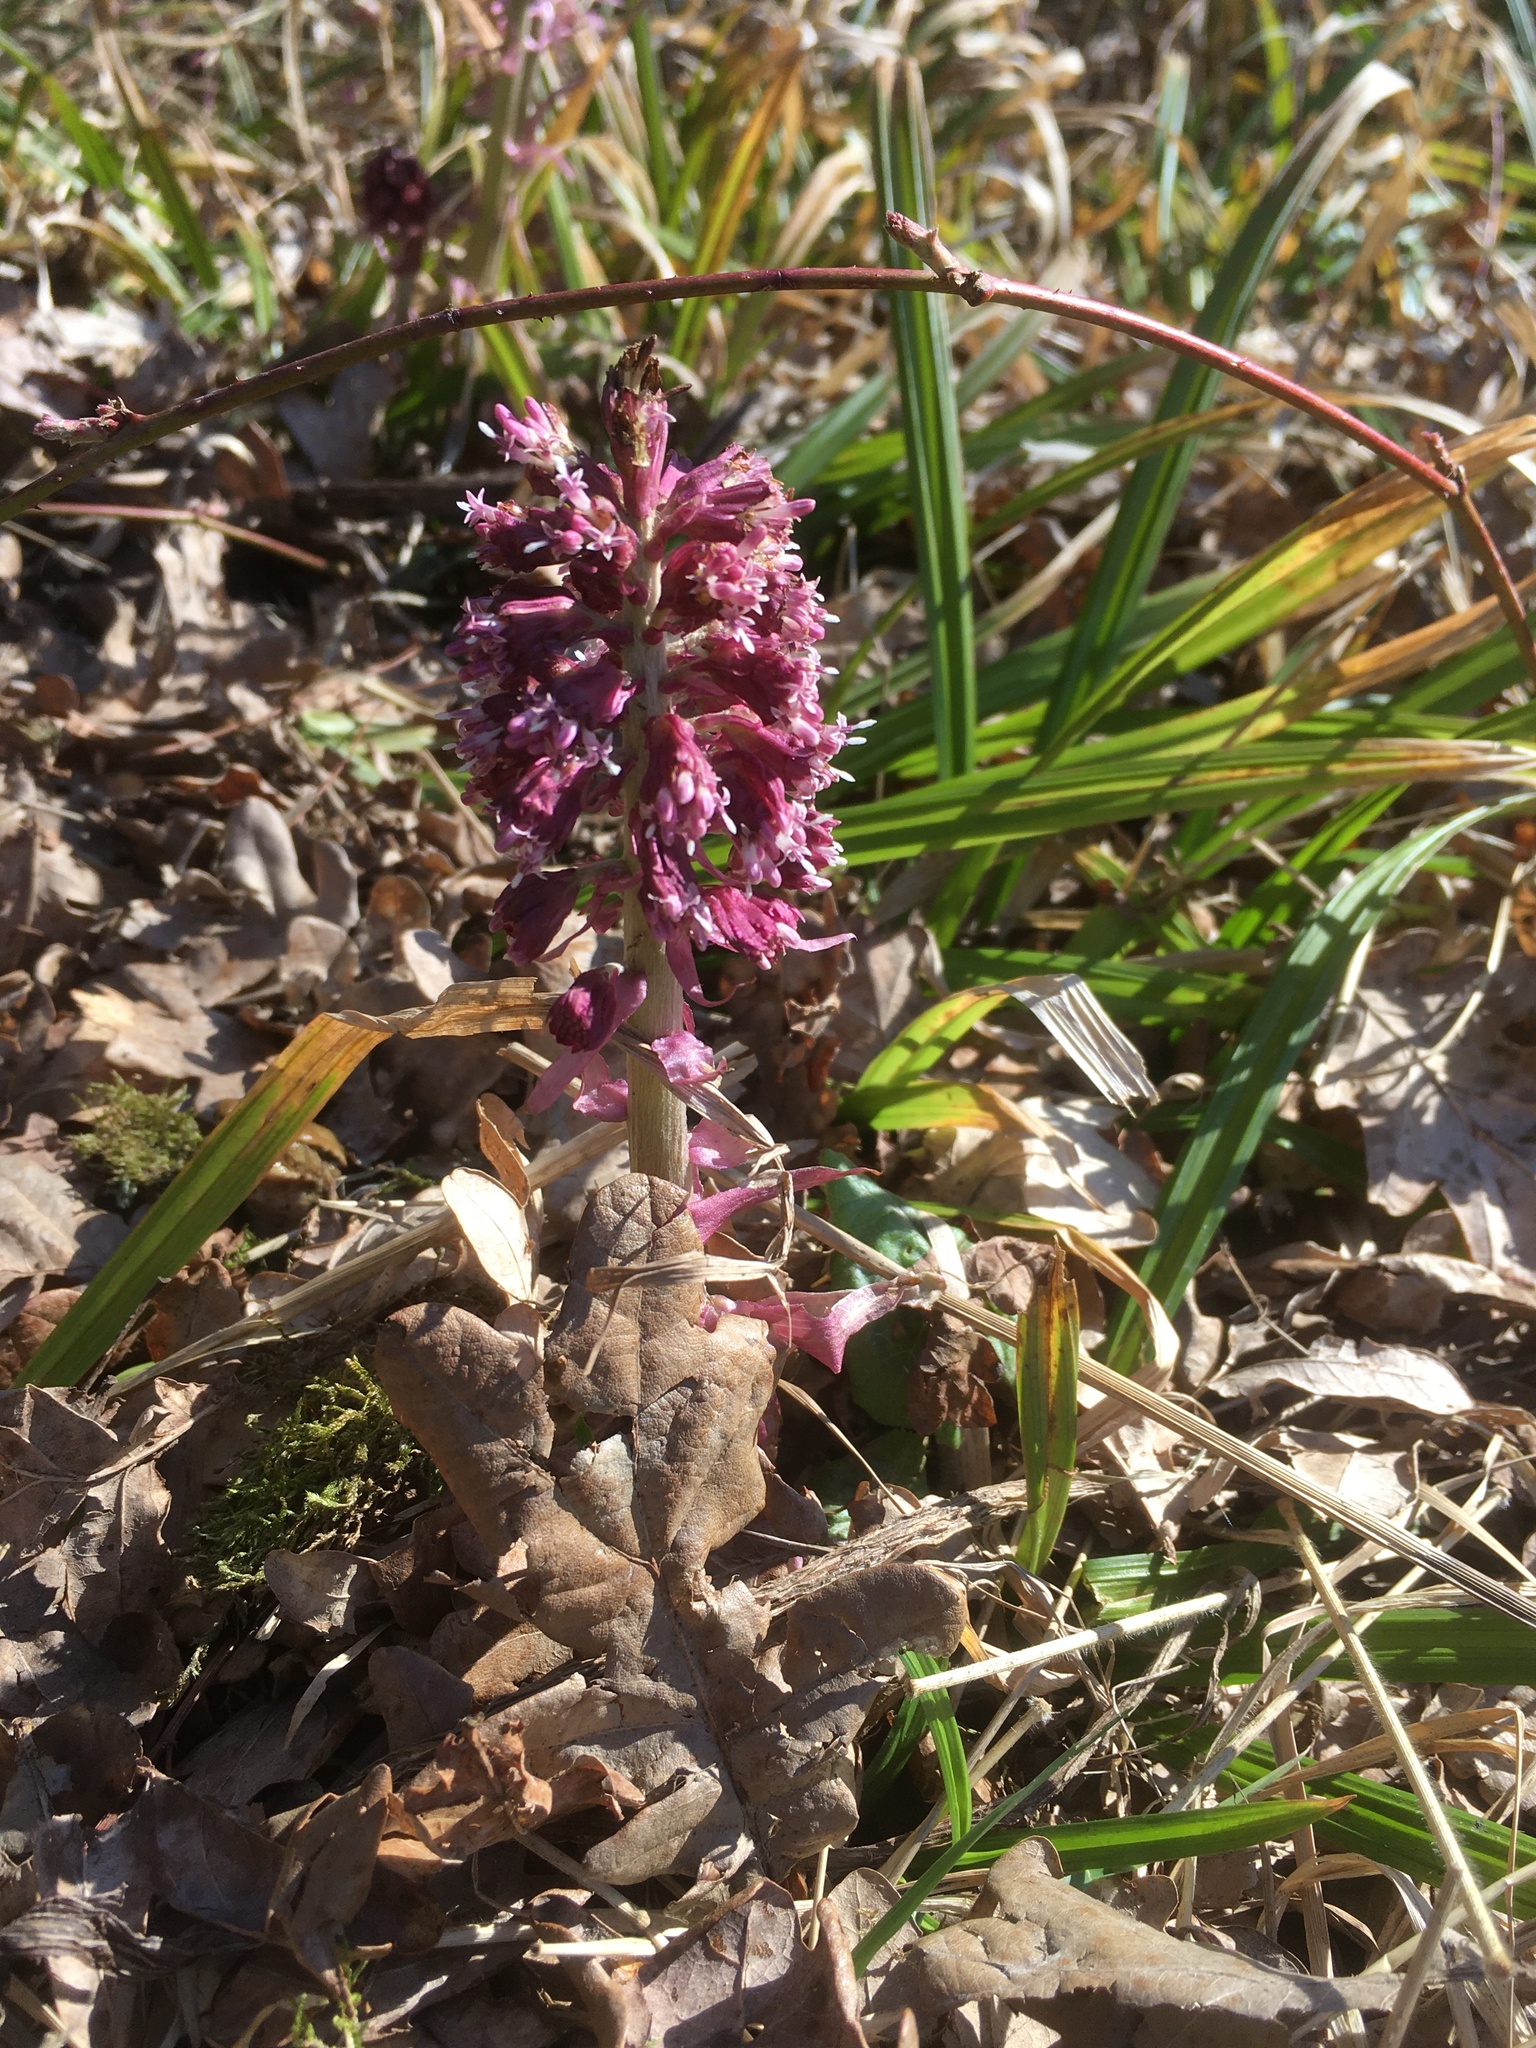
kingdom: Plantae
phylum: Tracheophyta
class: Magnoliopsida
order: Asterales
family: Asteraceae
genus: Petasites
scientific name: Petasites hybridus
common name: Butterbur
